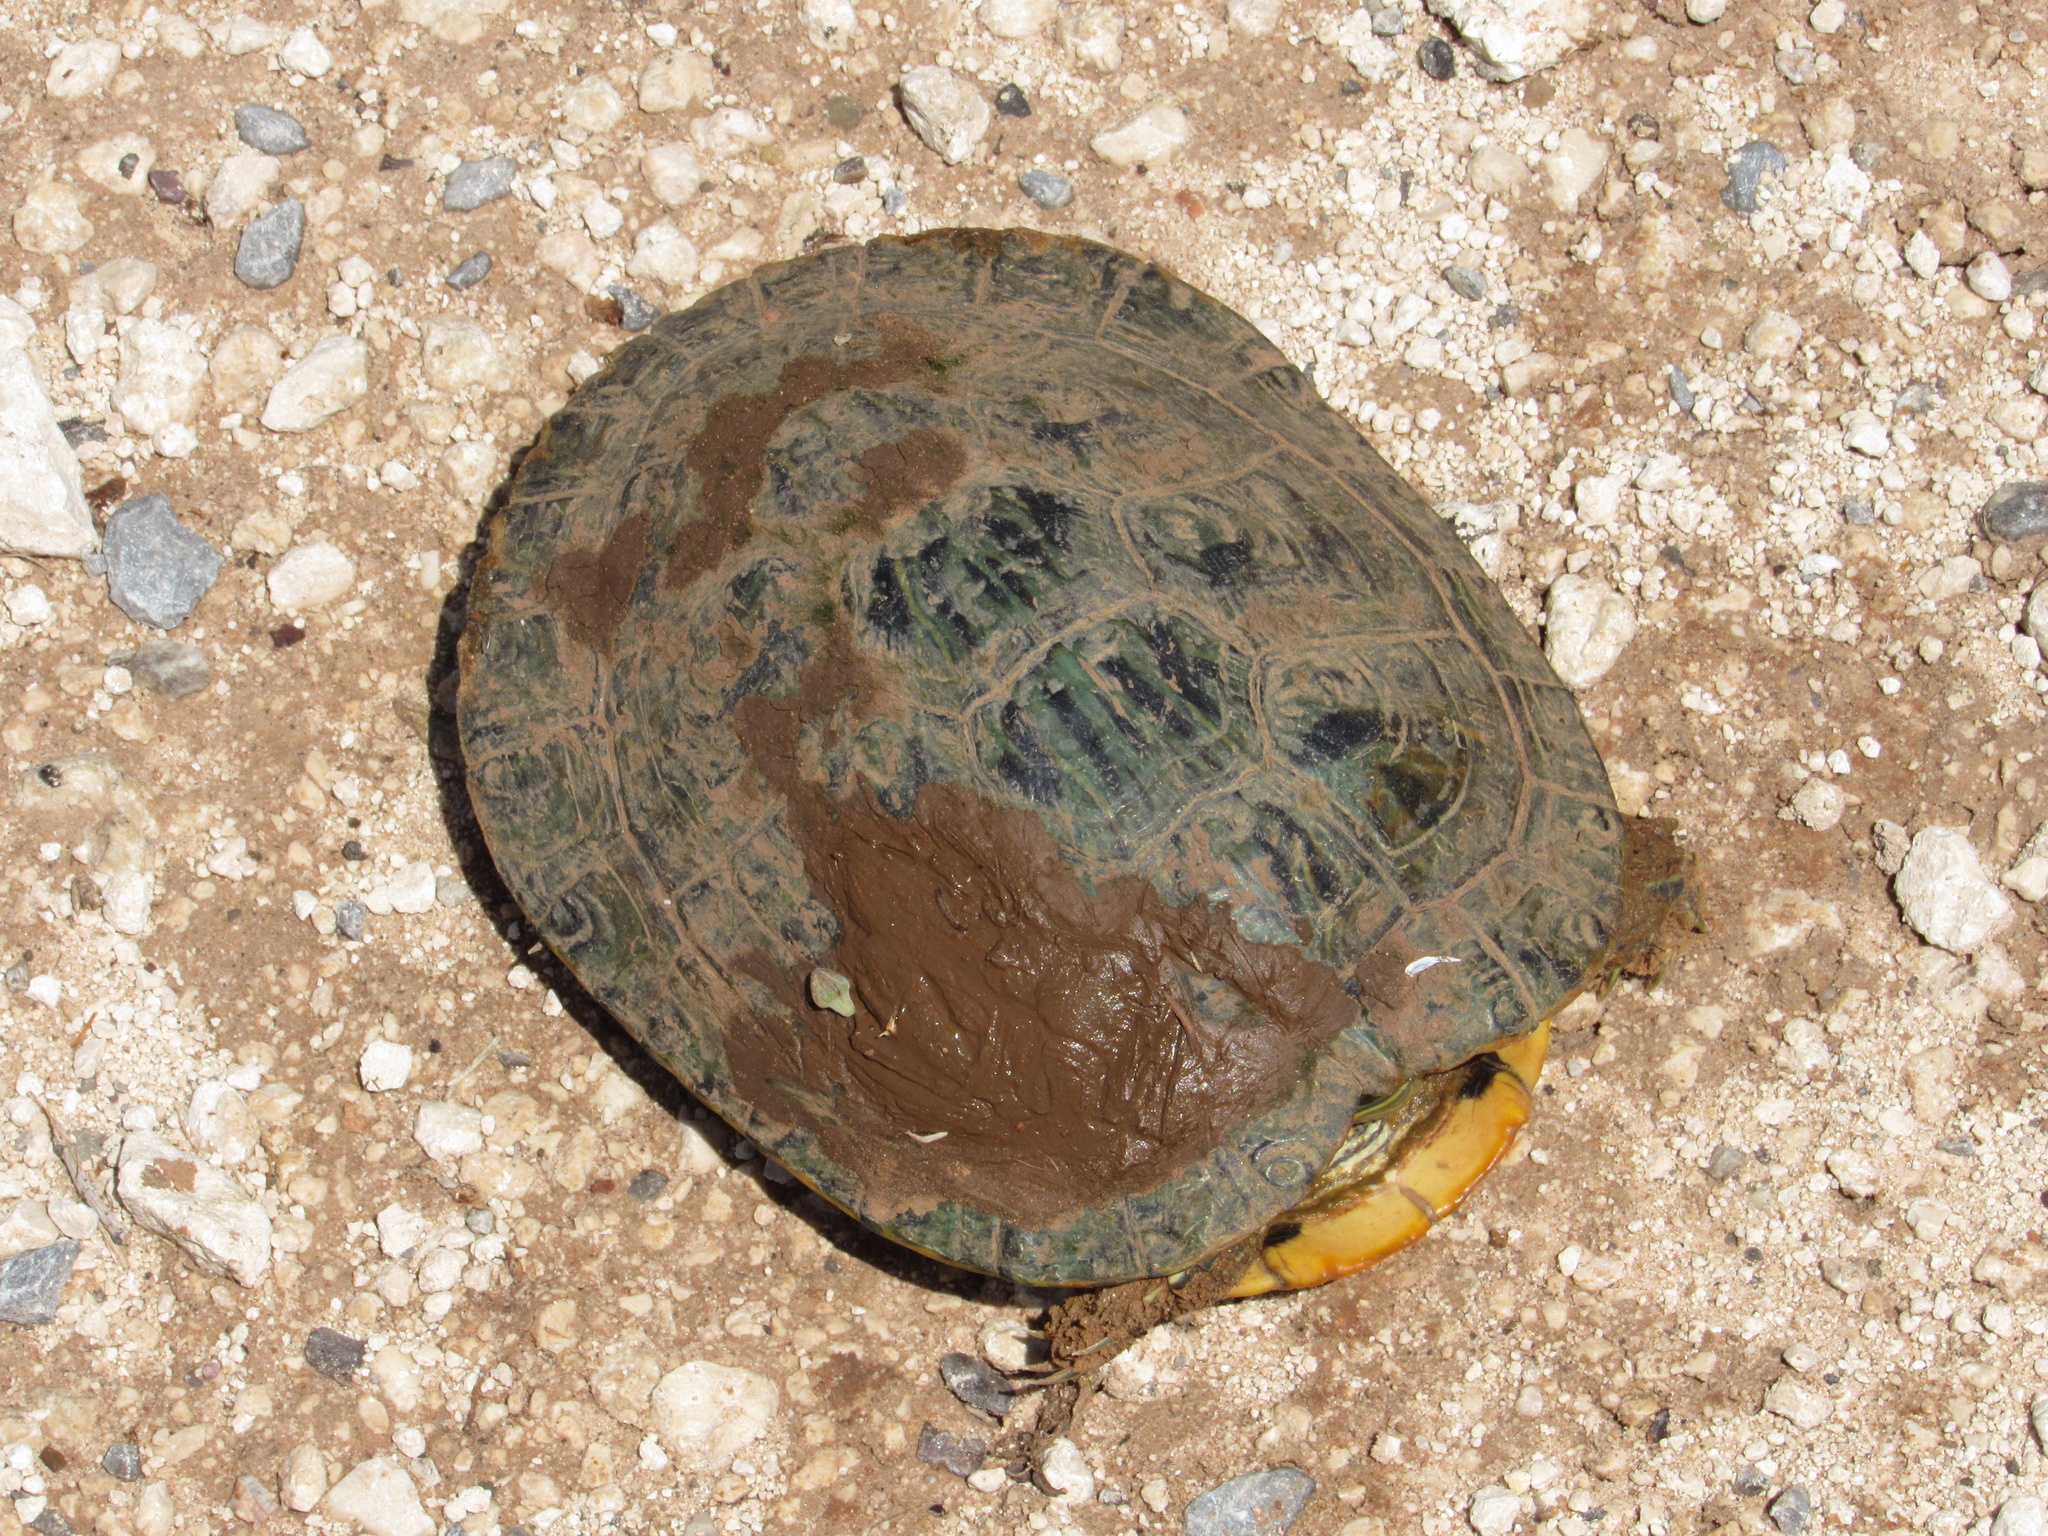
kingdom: Animalia
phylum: Chordata
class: Testudines
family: Emydidae
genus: Trachemys
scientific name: Trachemys scripta
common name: Slider
